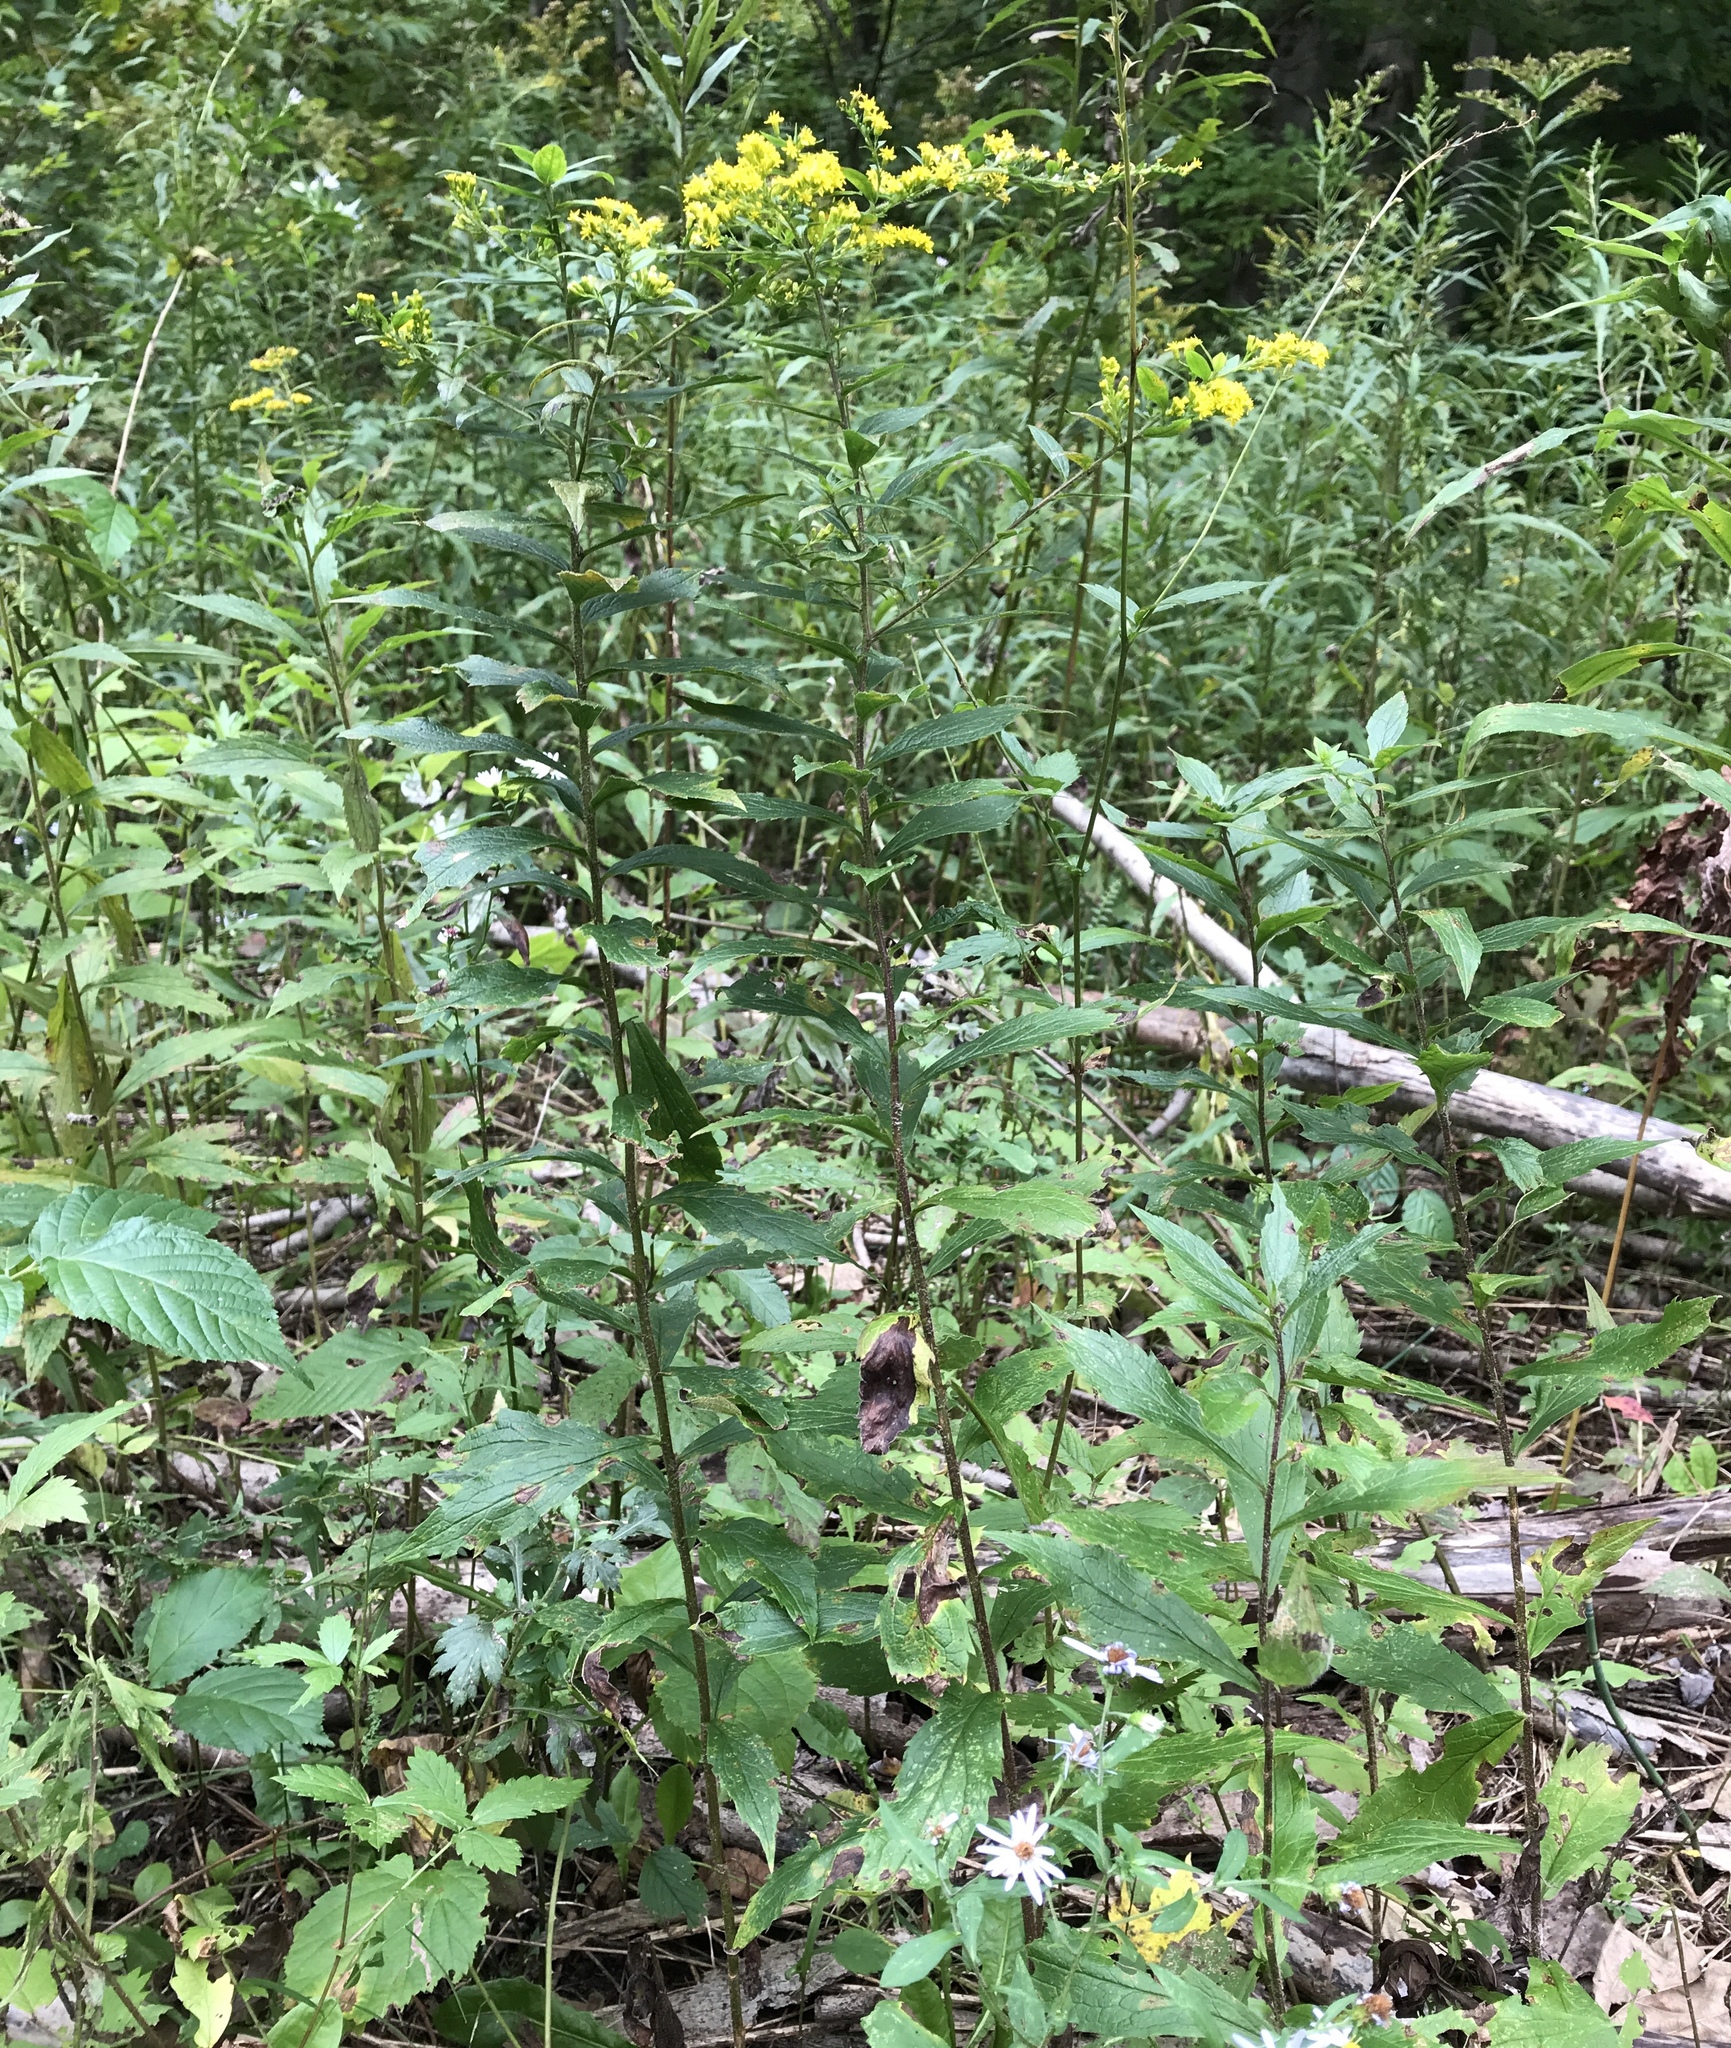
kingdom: Plantae
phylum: Tracheophyta
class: Magnoliopsida
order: Asterales
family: Asteraceae
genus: Solidago
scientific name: Solidago rugosa
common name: Rough-stemmed goldenrod
